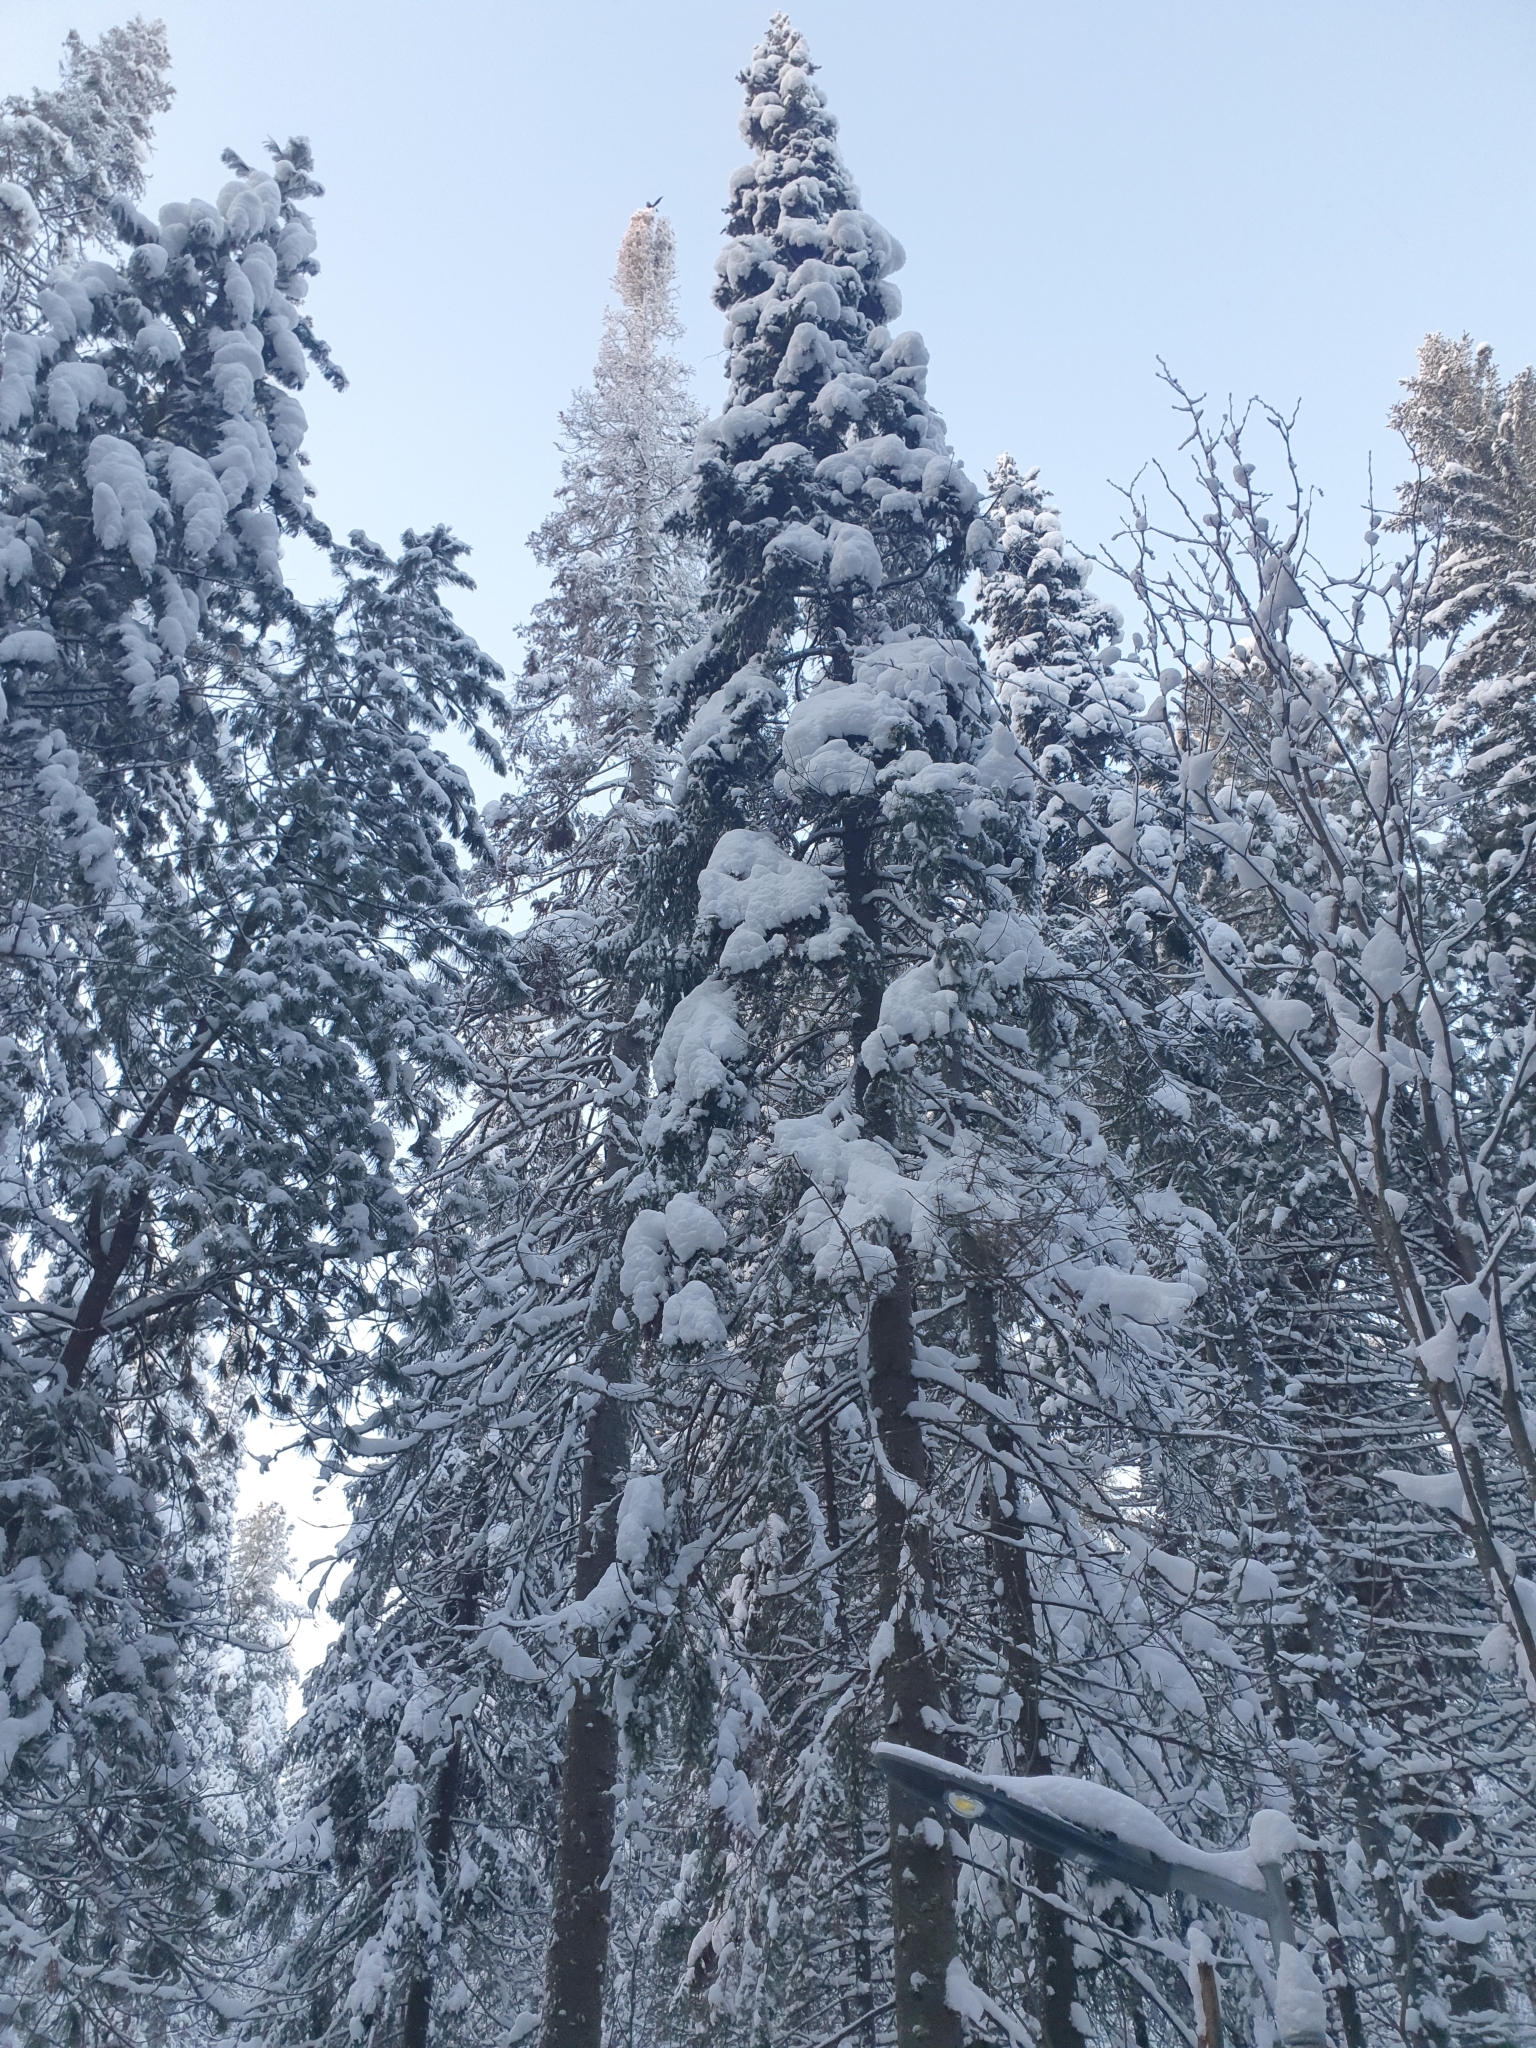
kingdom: Plantae
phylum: Tracheophyta
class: Pinopsida
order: Pinales
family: Pinaceae
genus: Picea
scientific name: Picea obovata
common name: Siberian spruce
